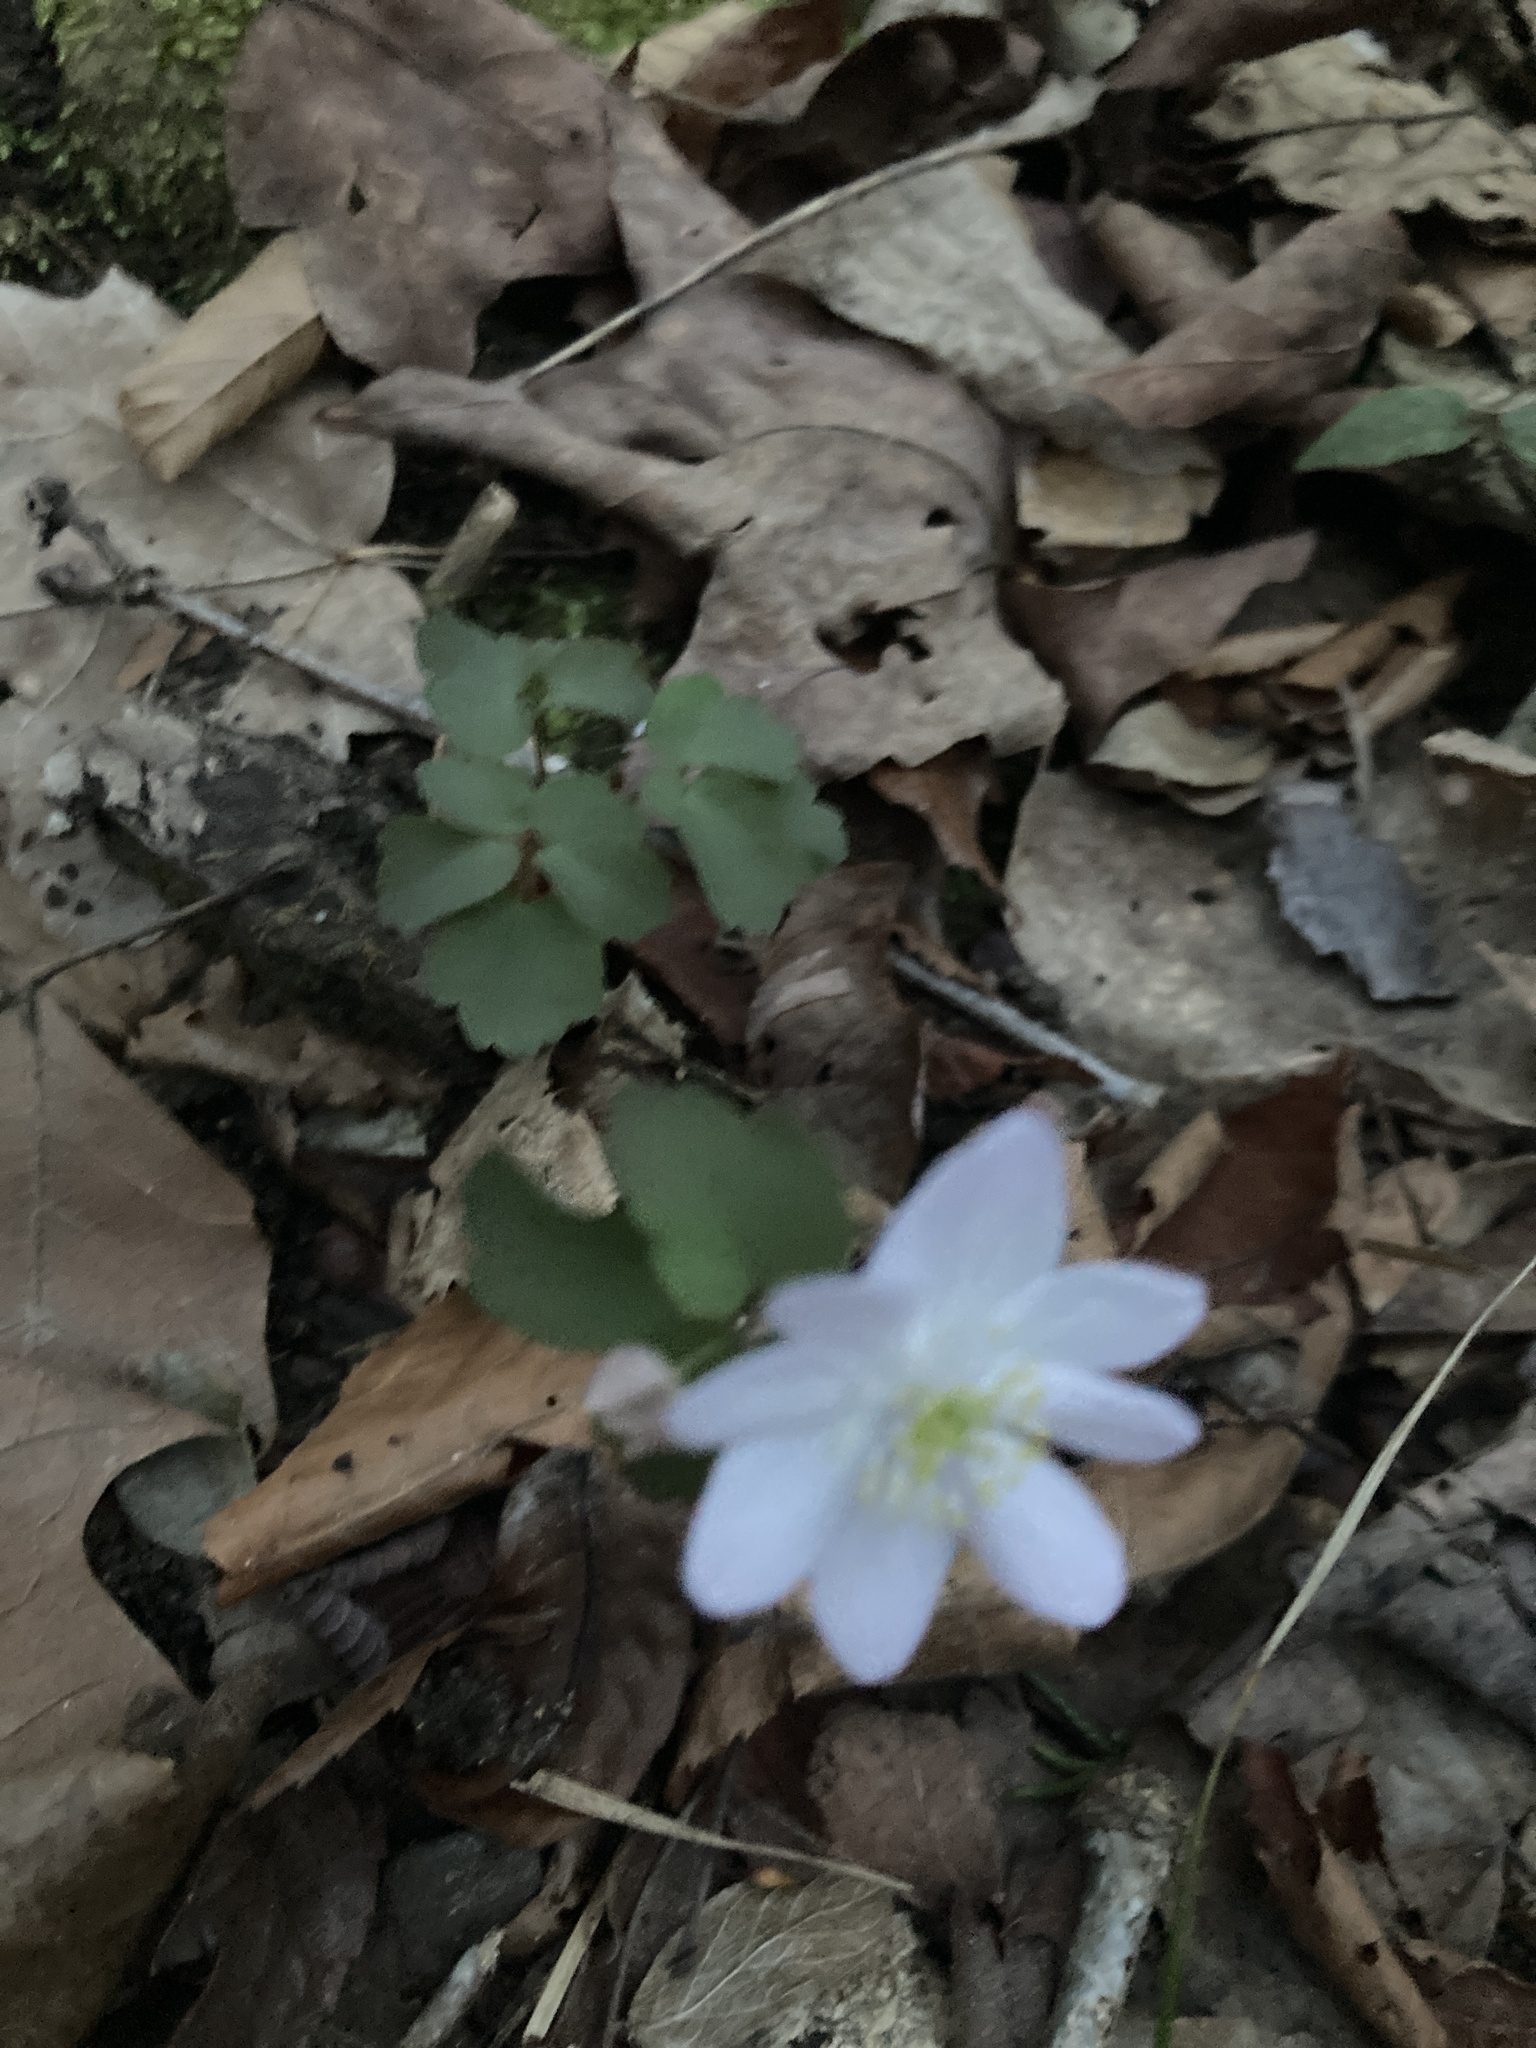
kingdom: Plantae
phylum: Tracheophyta
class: Magnoliopsida
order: Ranunculales
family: Ranunculaceae
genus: Thalictrum
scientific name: Thalictrum thalictroides
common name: Rue-anemone
